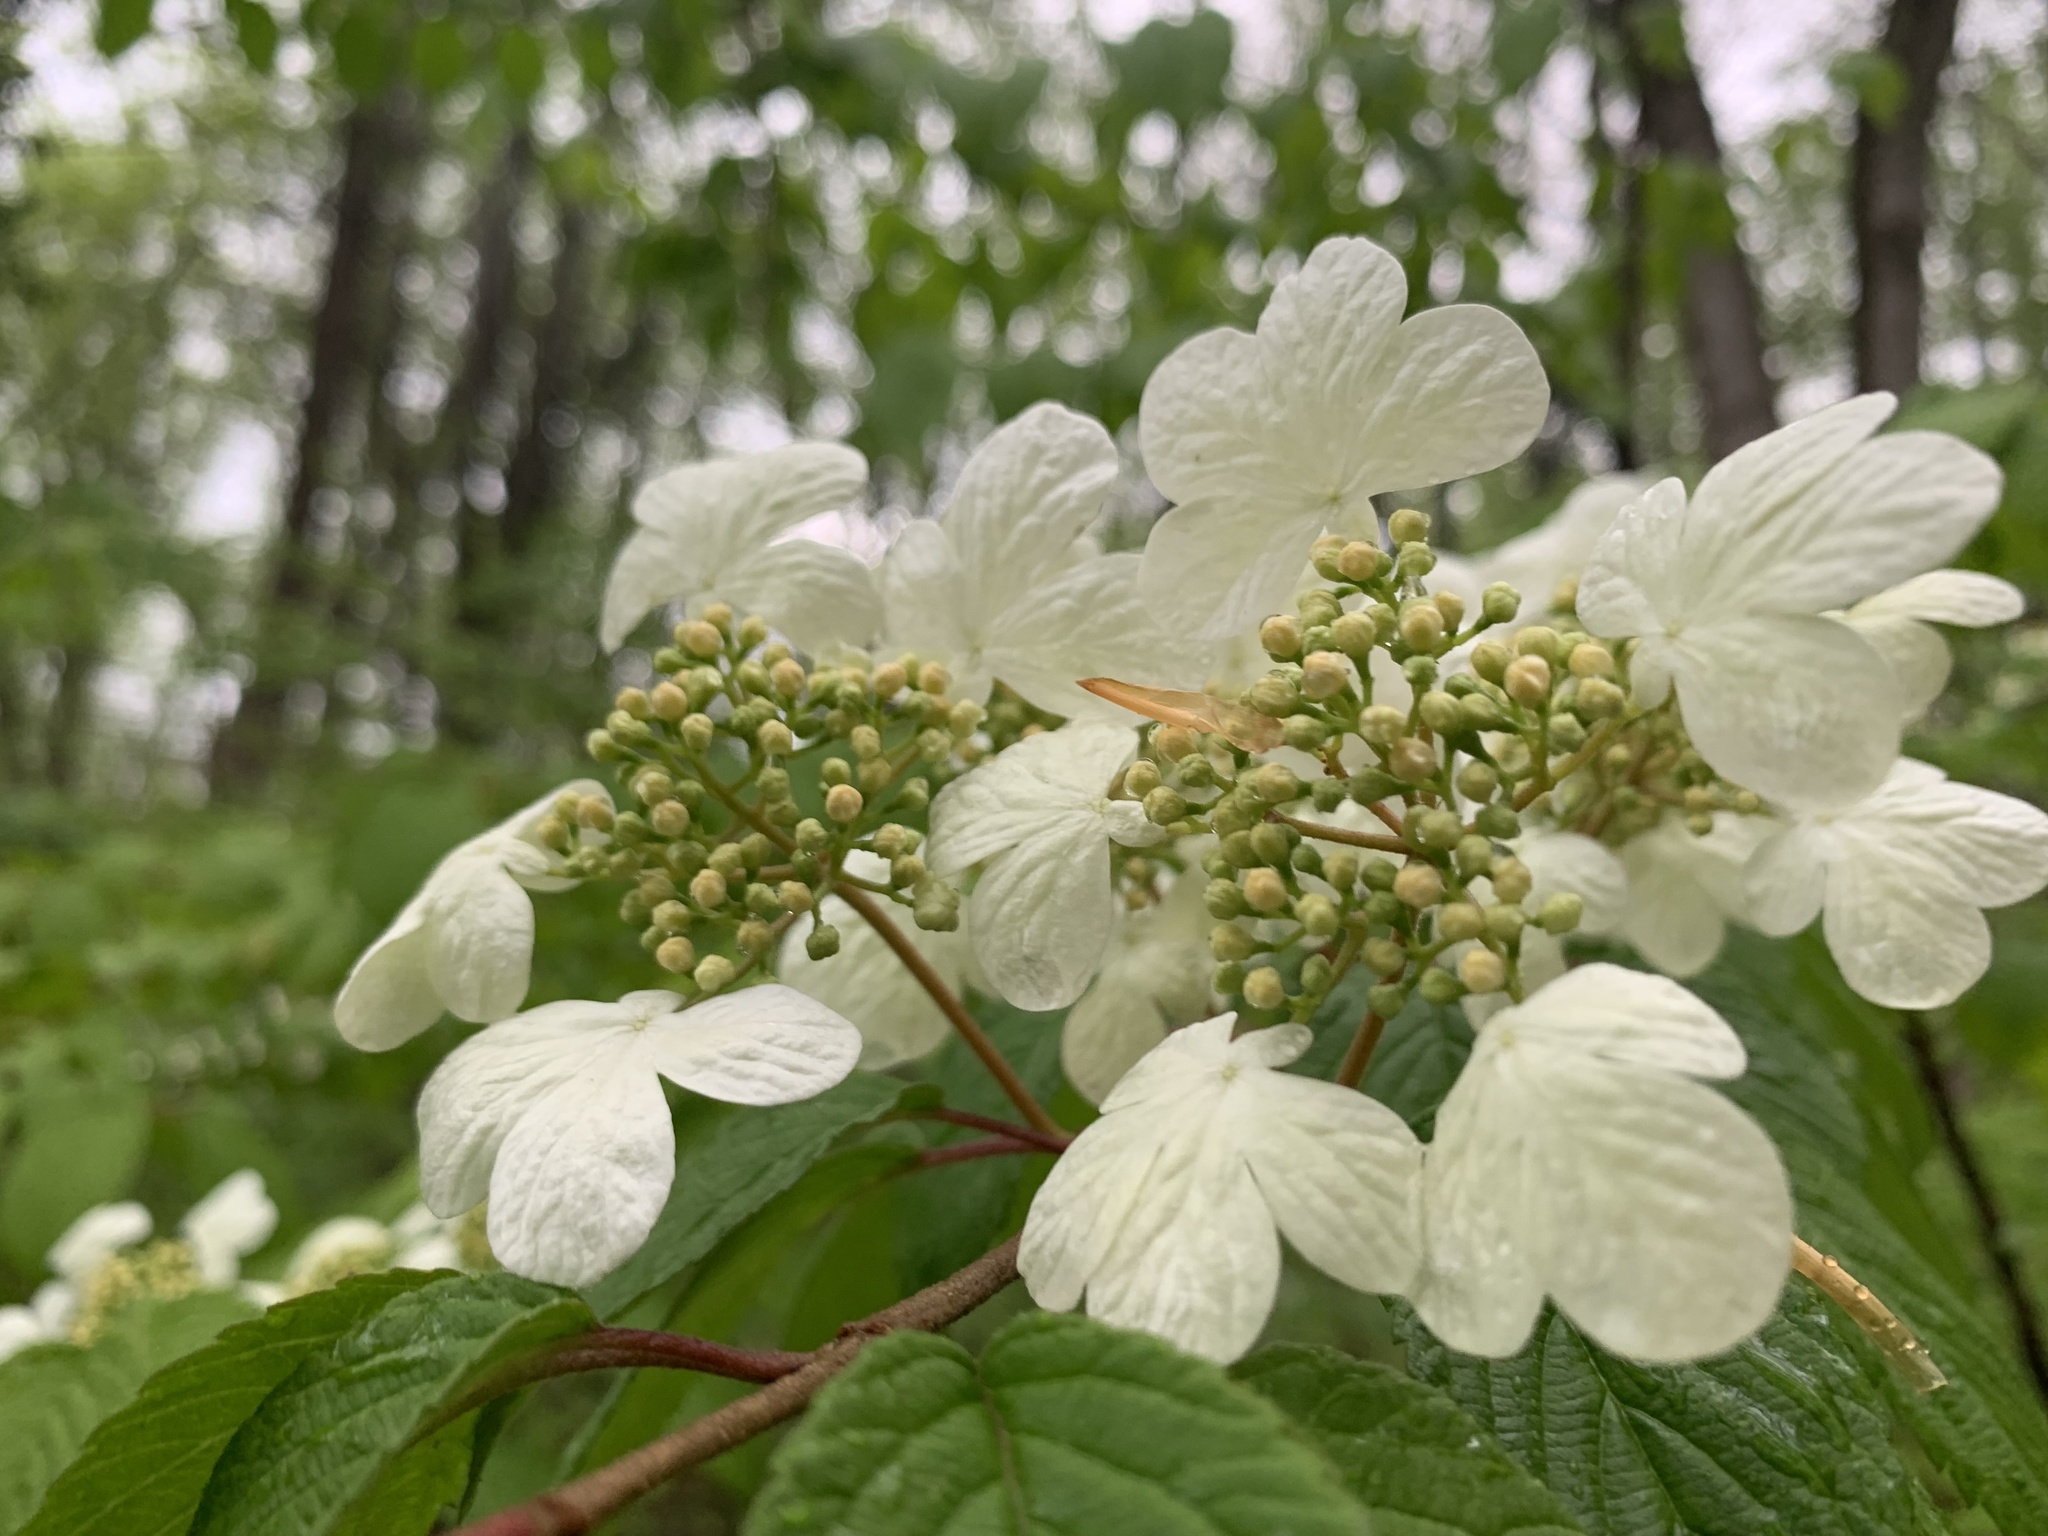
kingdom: Plantae
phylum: Tracheophyta
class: Magnoliopsida
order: Dipsacales
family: Viburnaceae
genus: Viburnum
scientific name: Viburnum plicatum
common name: Japanese snowball
